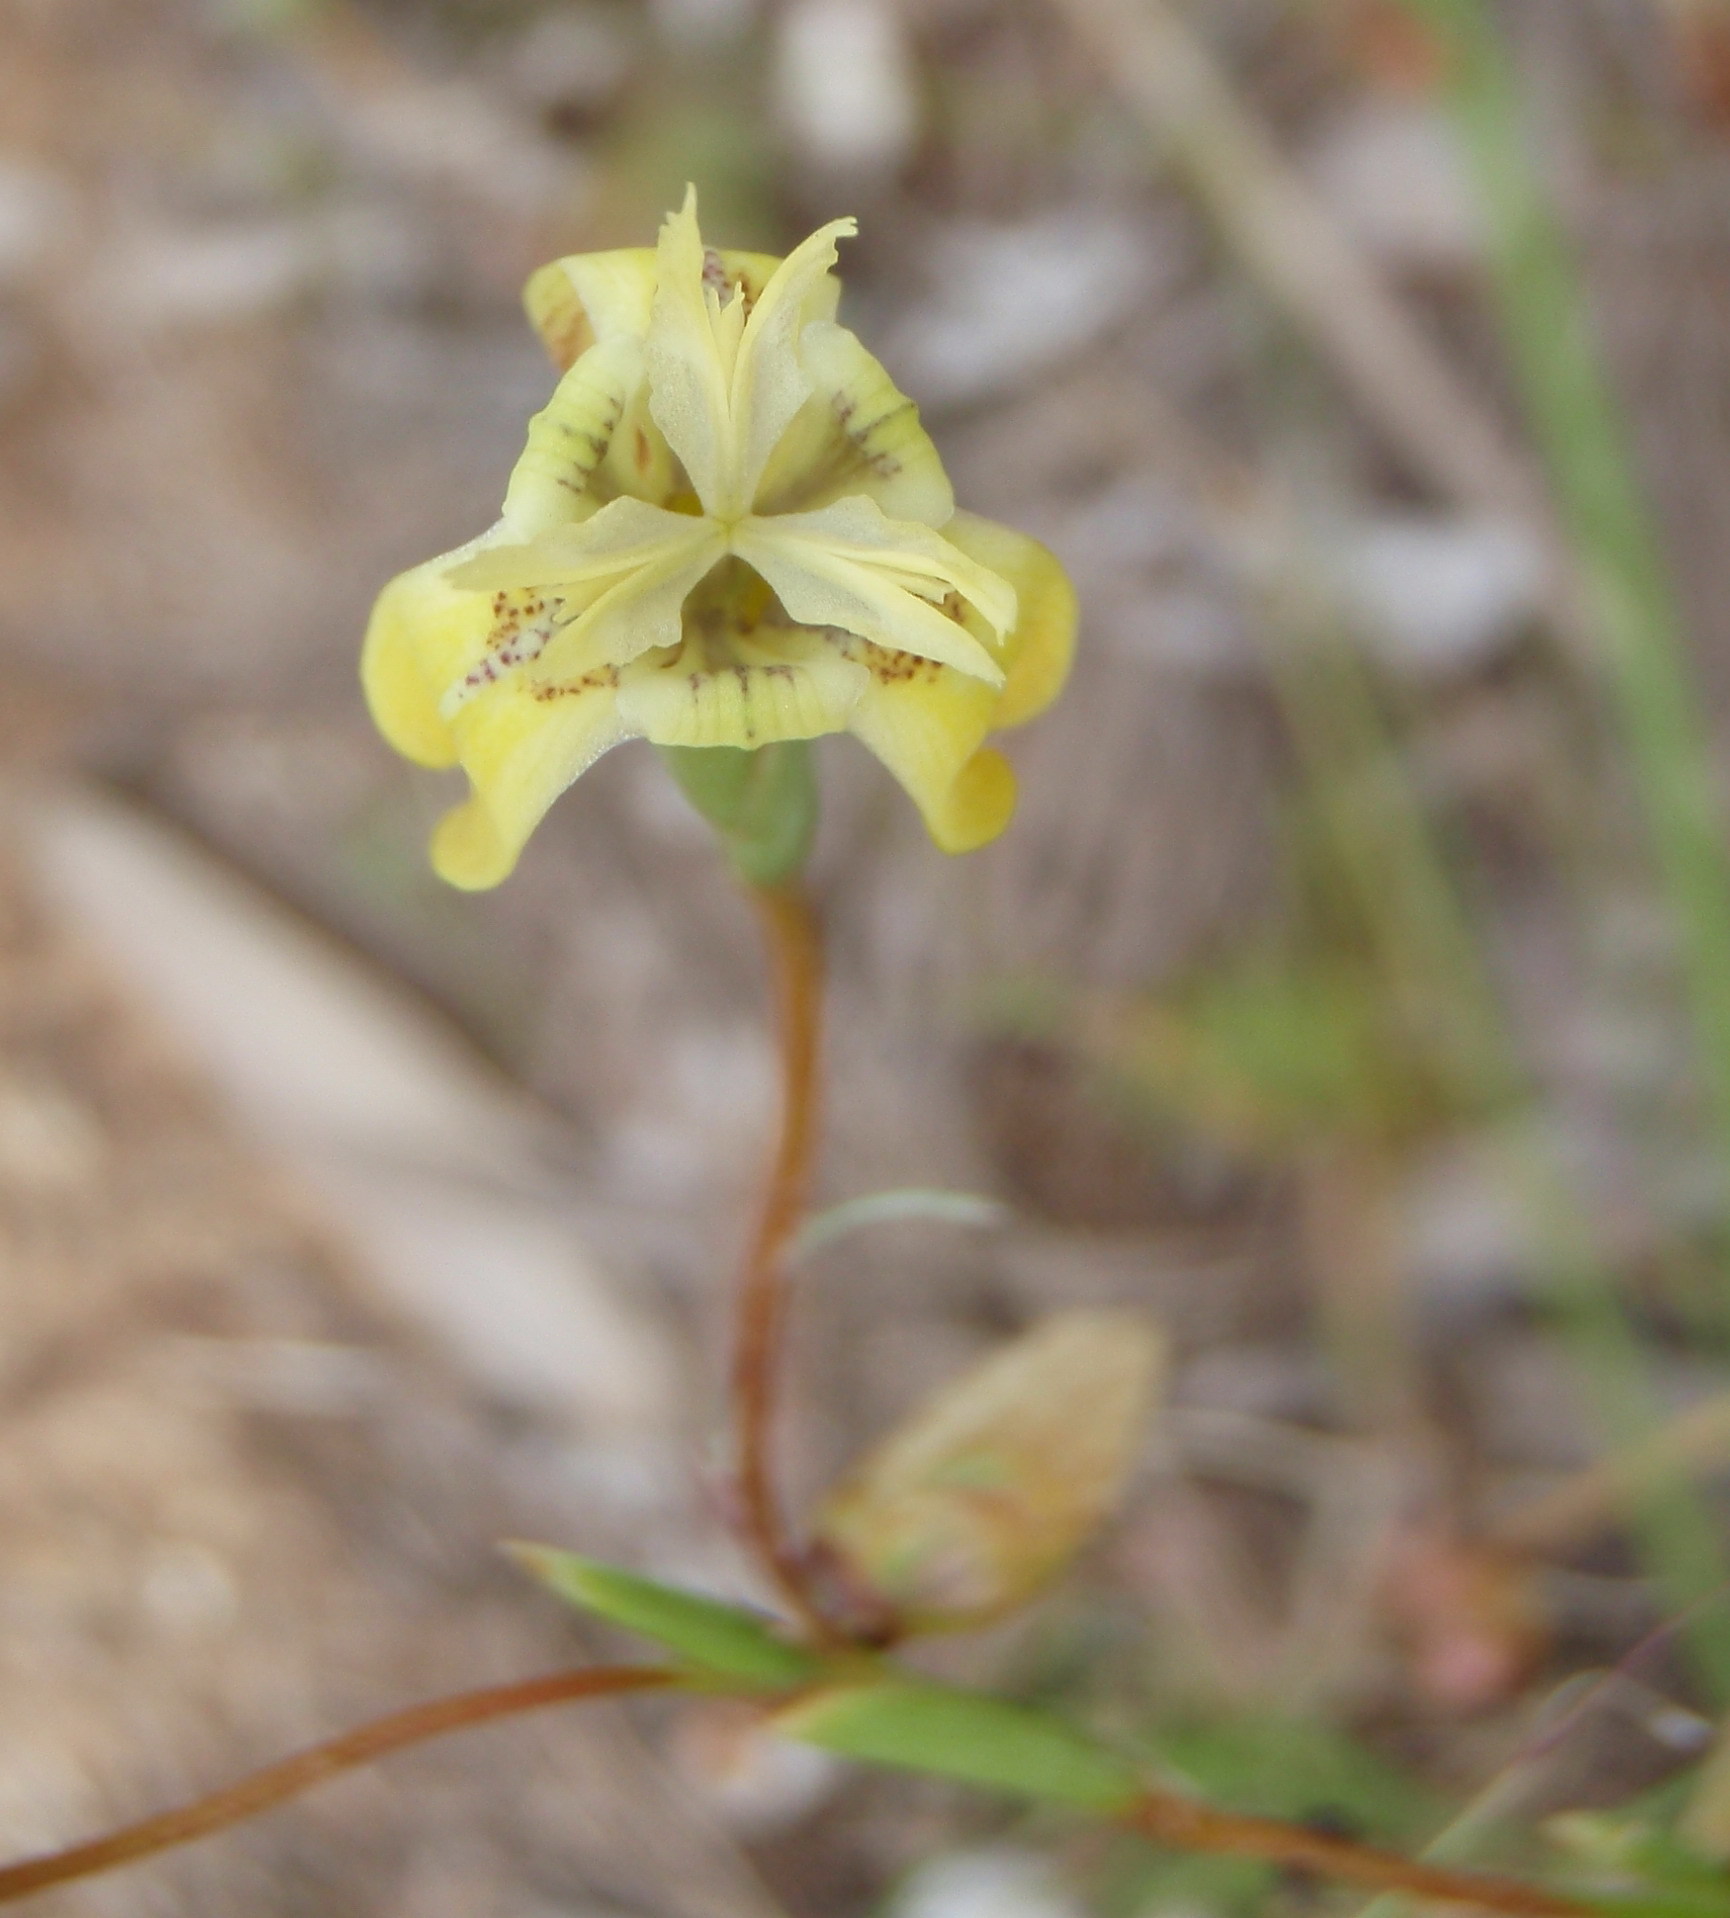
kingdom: Plantae
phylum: Tracheophyta
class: Liliopsida
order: Asparagales
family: Iridaceae
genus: Moraea
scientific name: Moraea inconspicua
